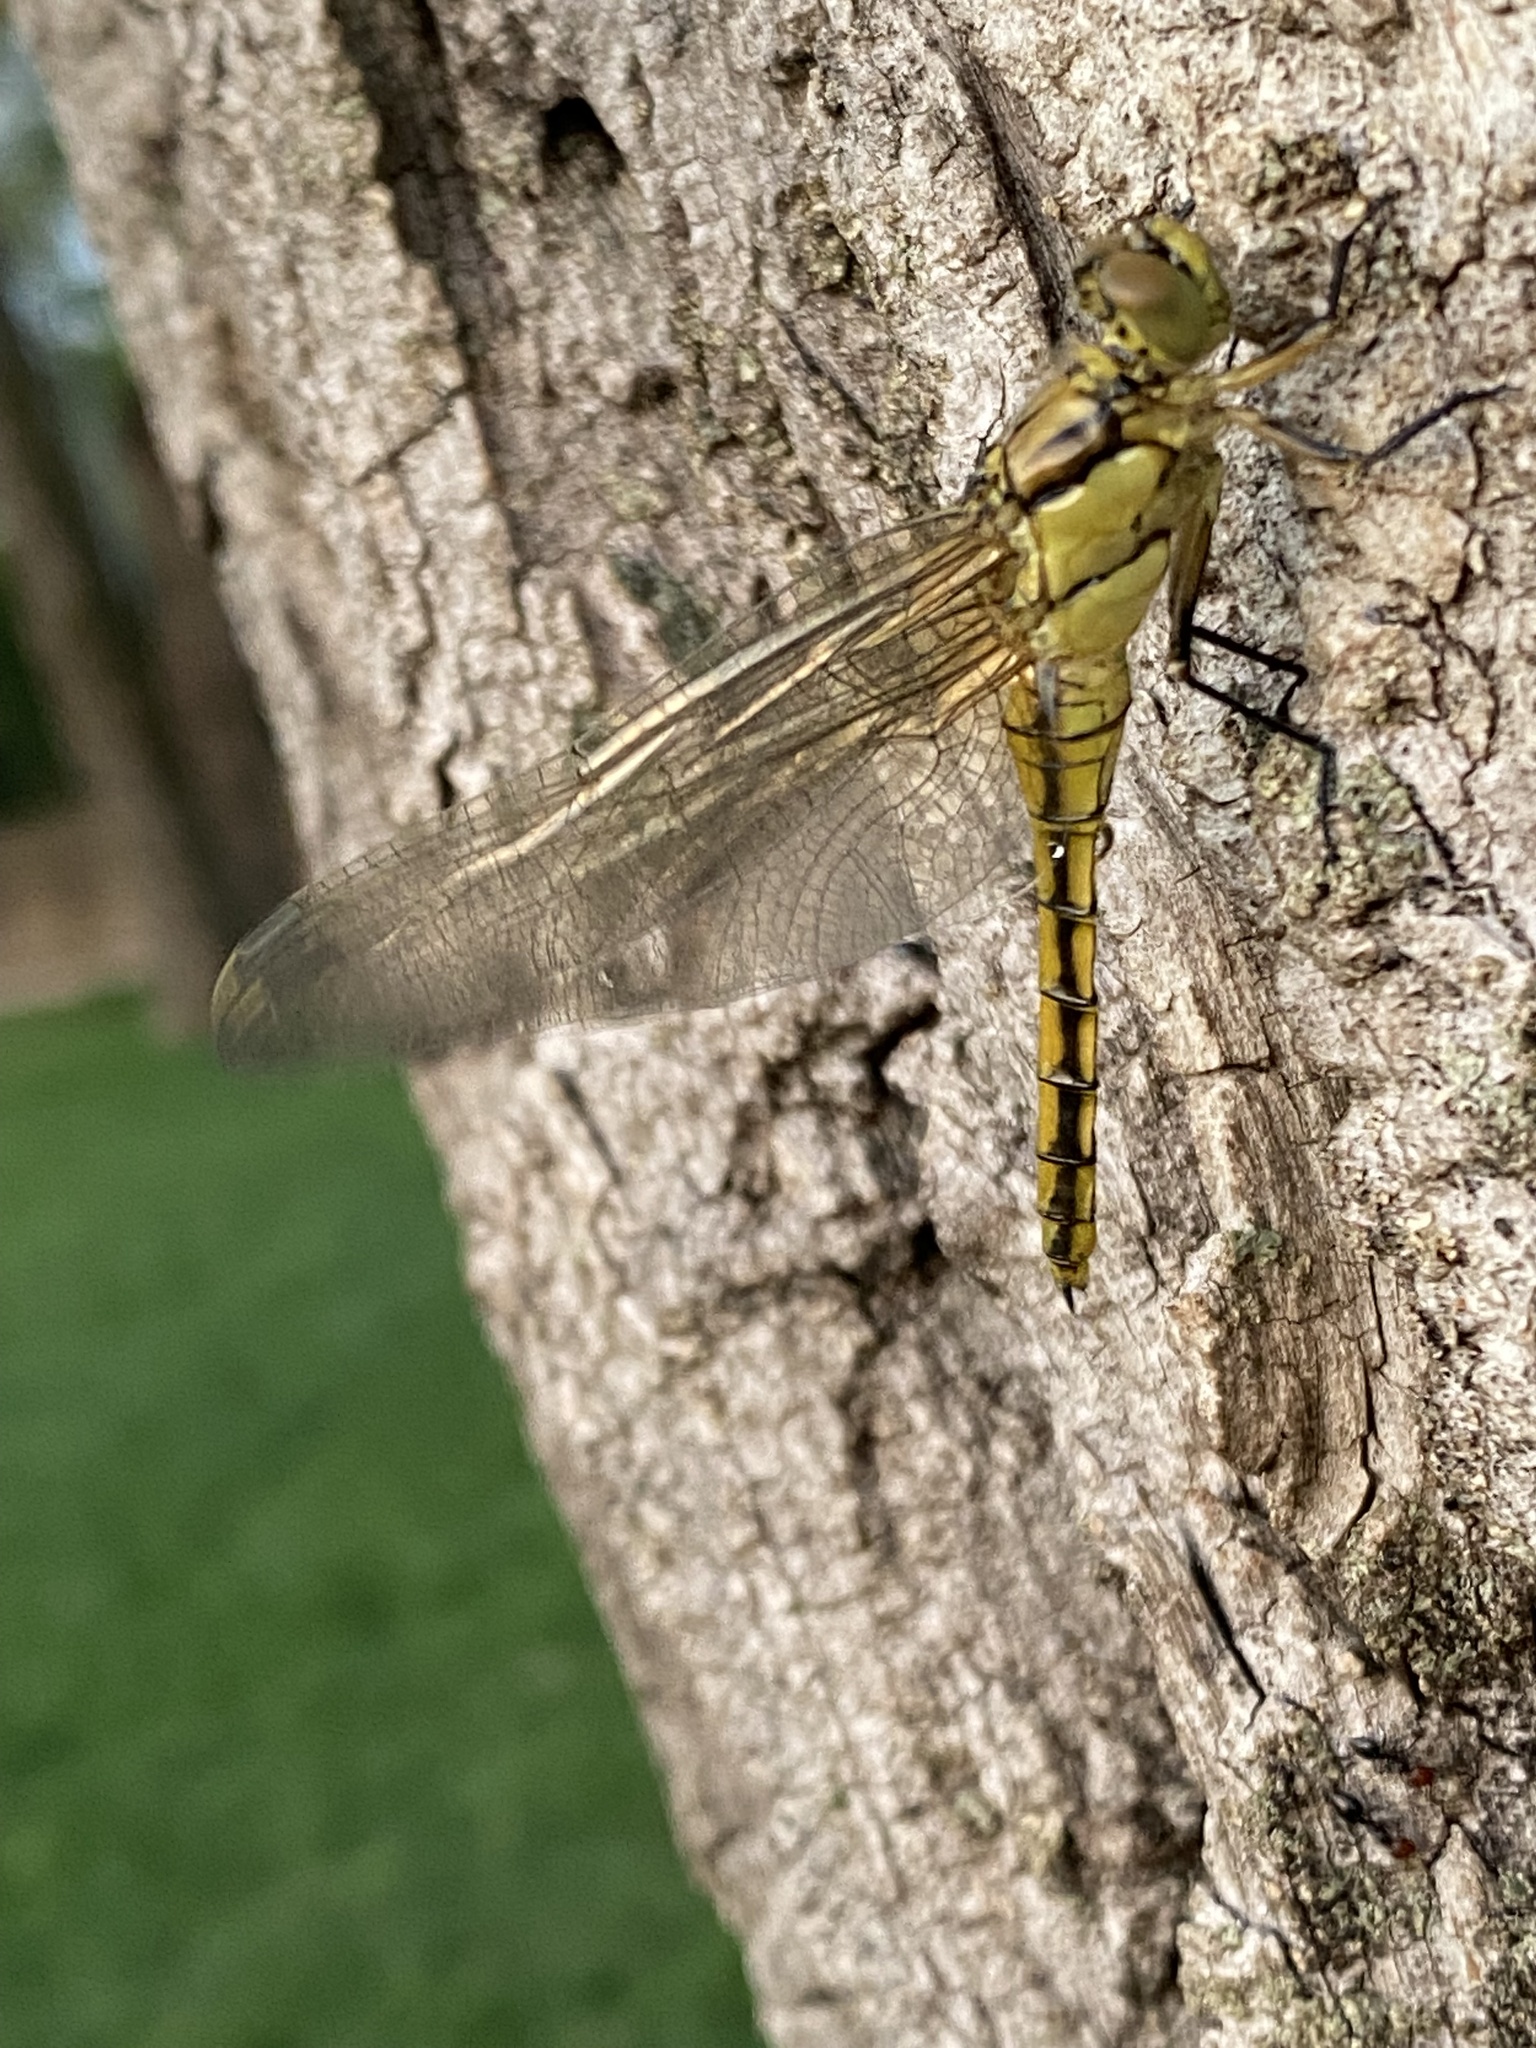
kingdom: Animalia
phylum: Arthropoda
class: Insecta
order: Odonata
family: Libellulidae
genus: Orthetrum
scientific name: Orthetrum cancellatum
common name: Black-tailed skimmer
